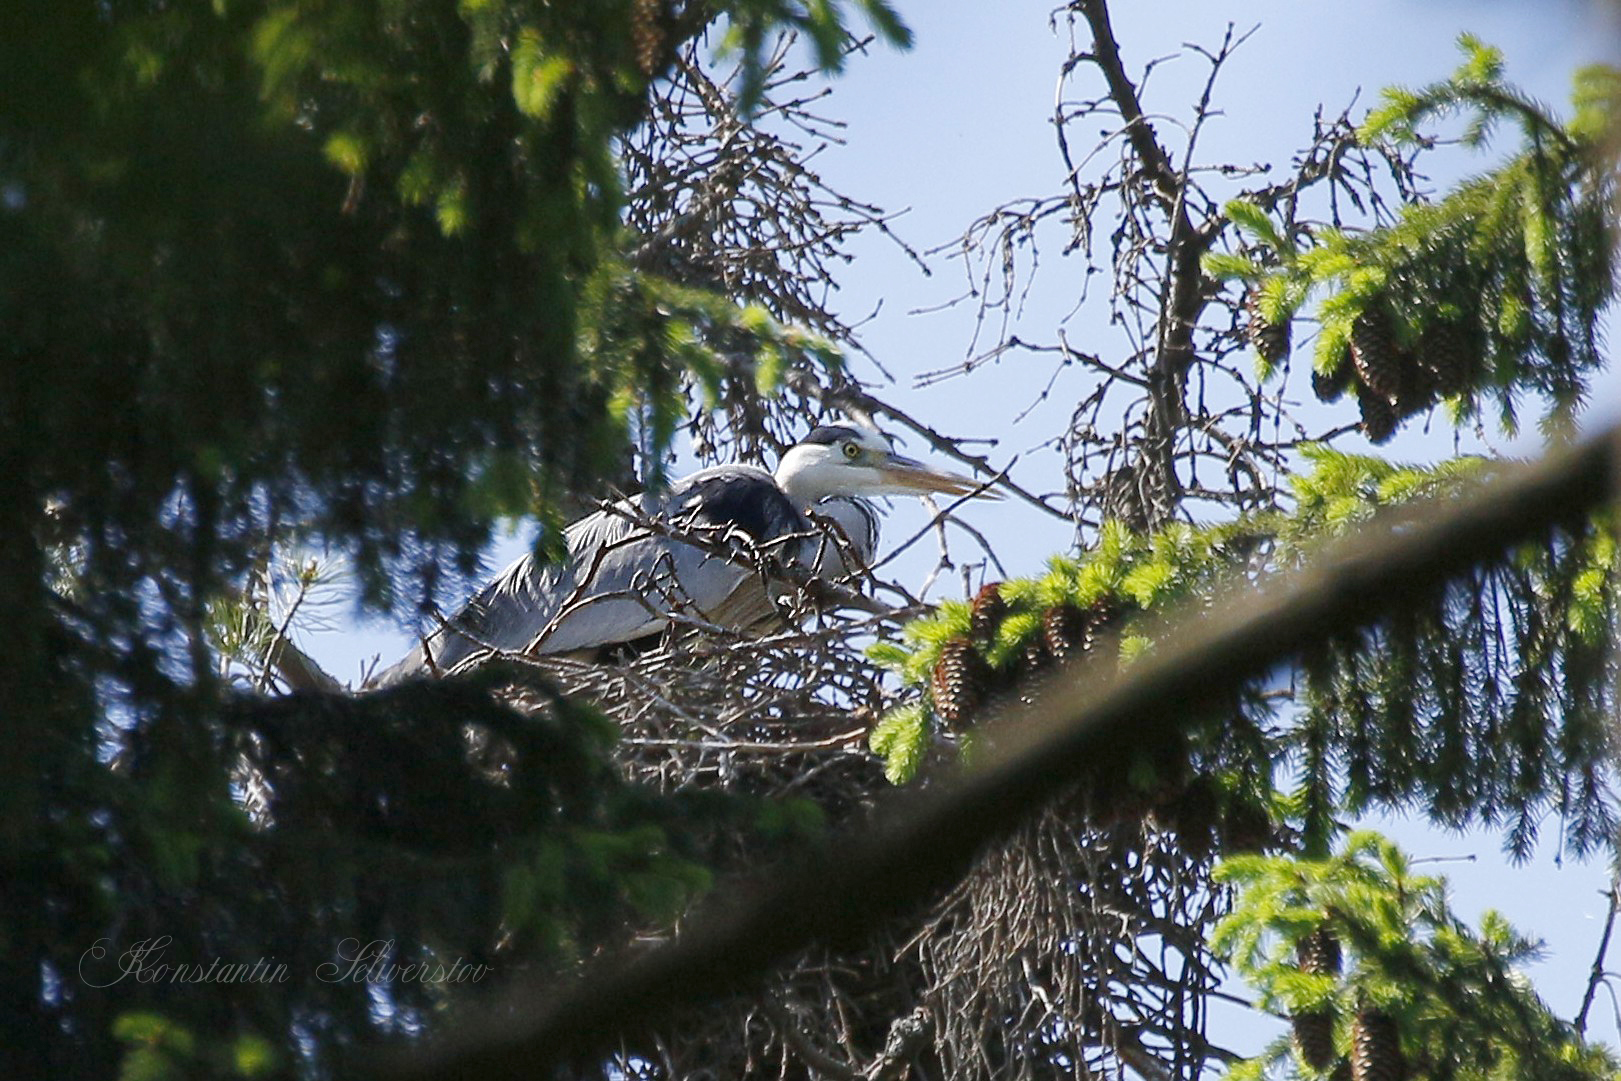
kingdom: Animalia
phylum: Chordata
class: Aves
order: Pelecaniformes
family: Ardeidae
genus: Ardea
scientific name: Ardea cinerea
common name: Grey heron
